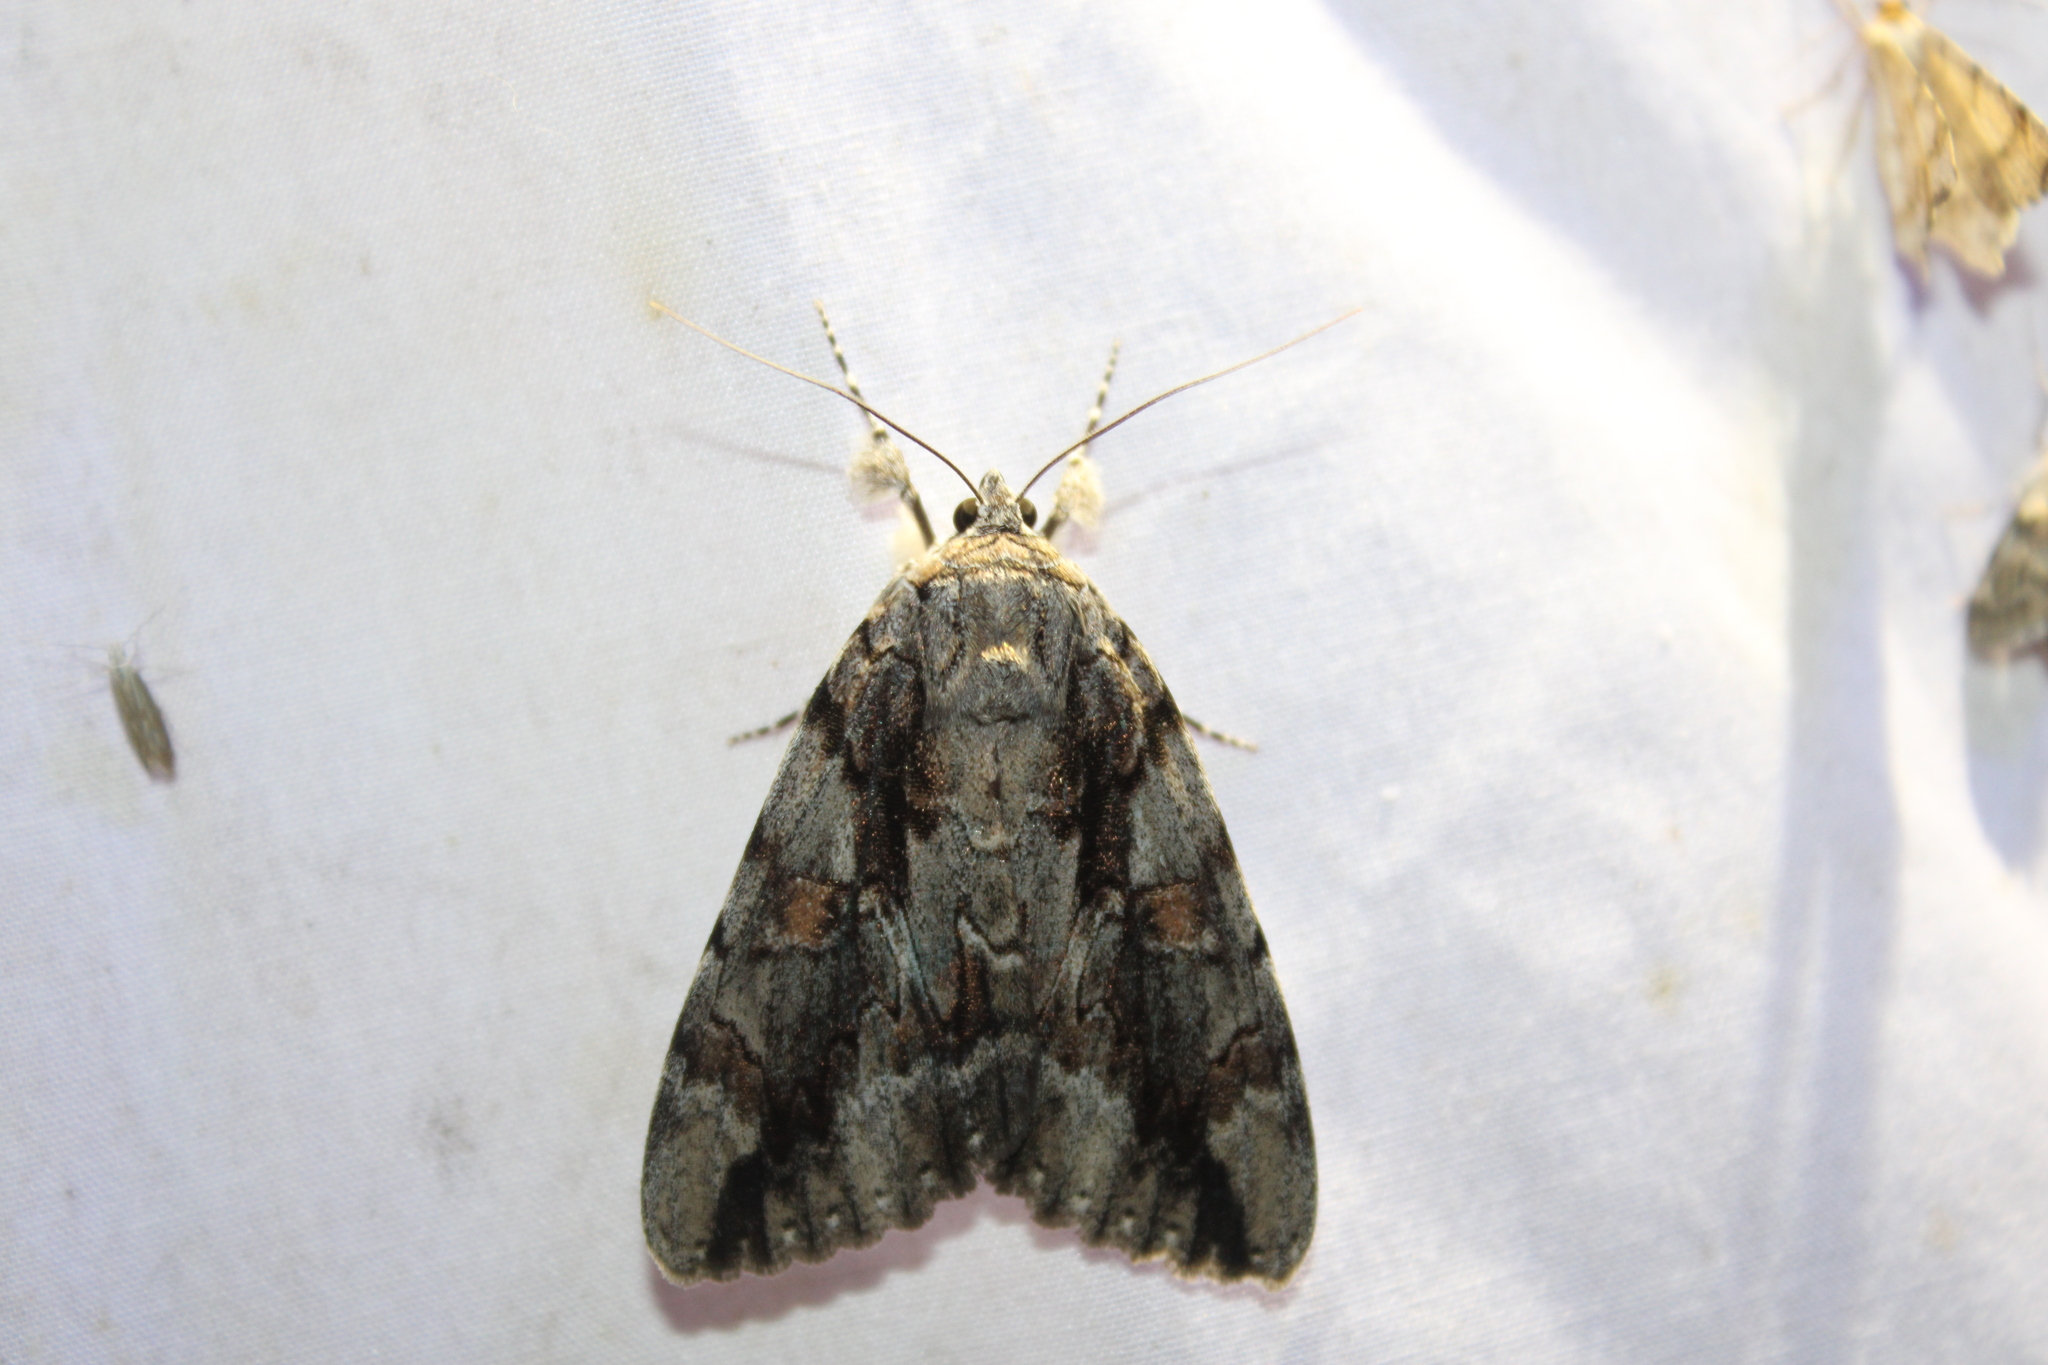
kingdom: Animalia
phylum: Arthropoda
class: Insecta
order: Lepidoptera
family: Erebidae
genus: Catocala
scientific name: Catocala flebilis
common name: Mournful underwing
